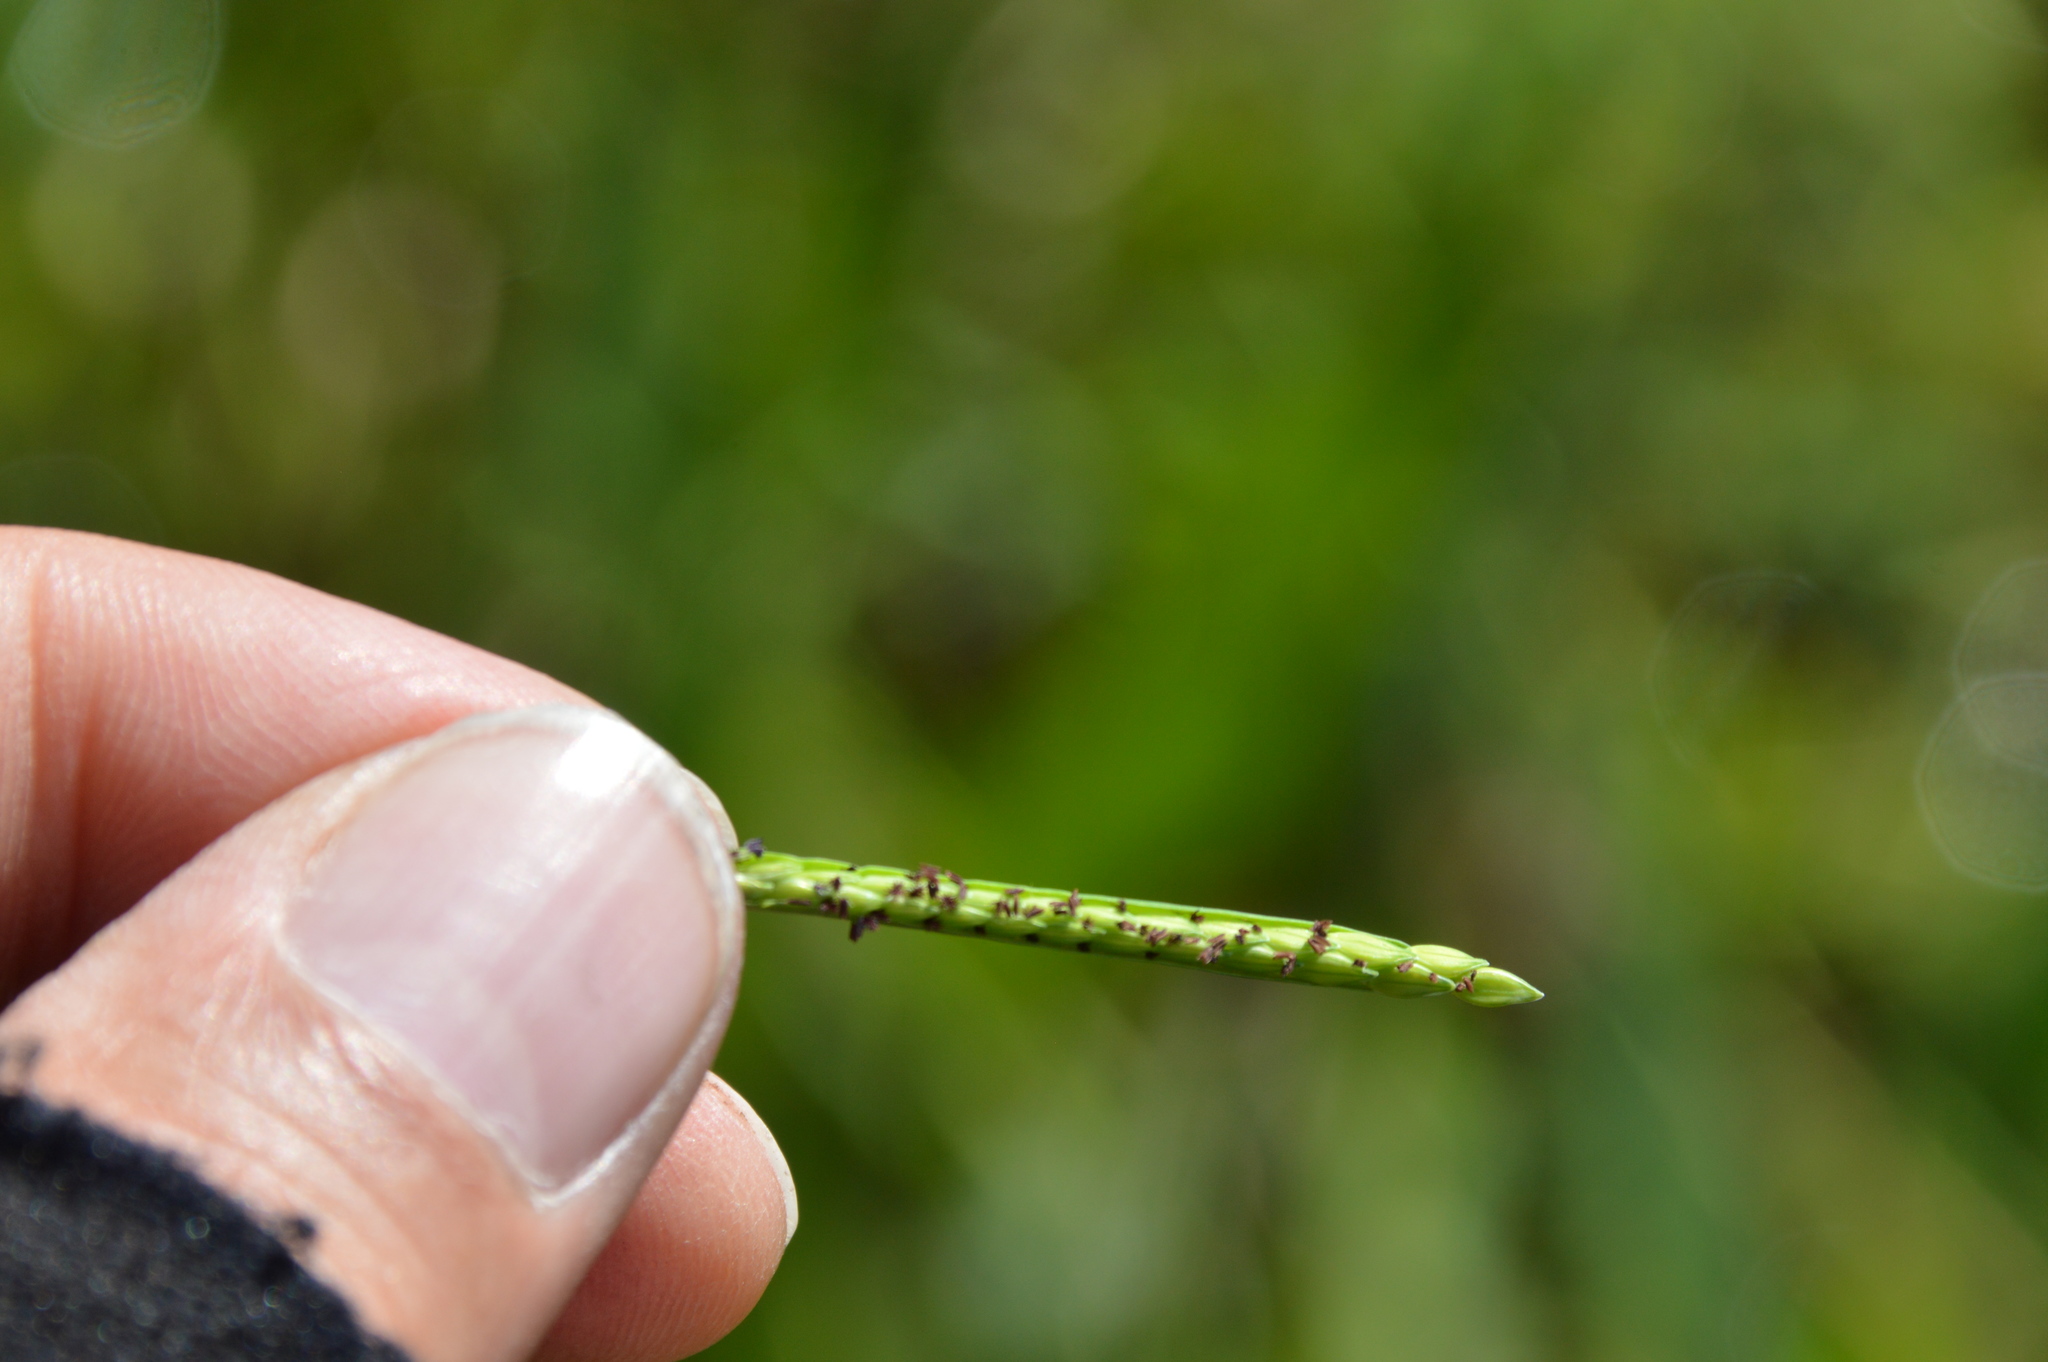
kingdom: Plantae
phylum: Tracheophyta
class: Liliopsida
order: Poales
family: Poaceae
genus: Paspalum
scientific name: Paspalum acuminatum
